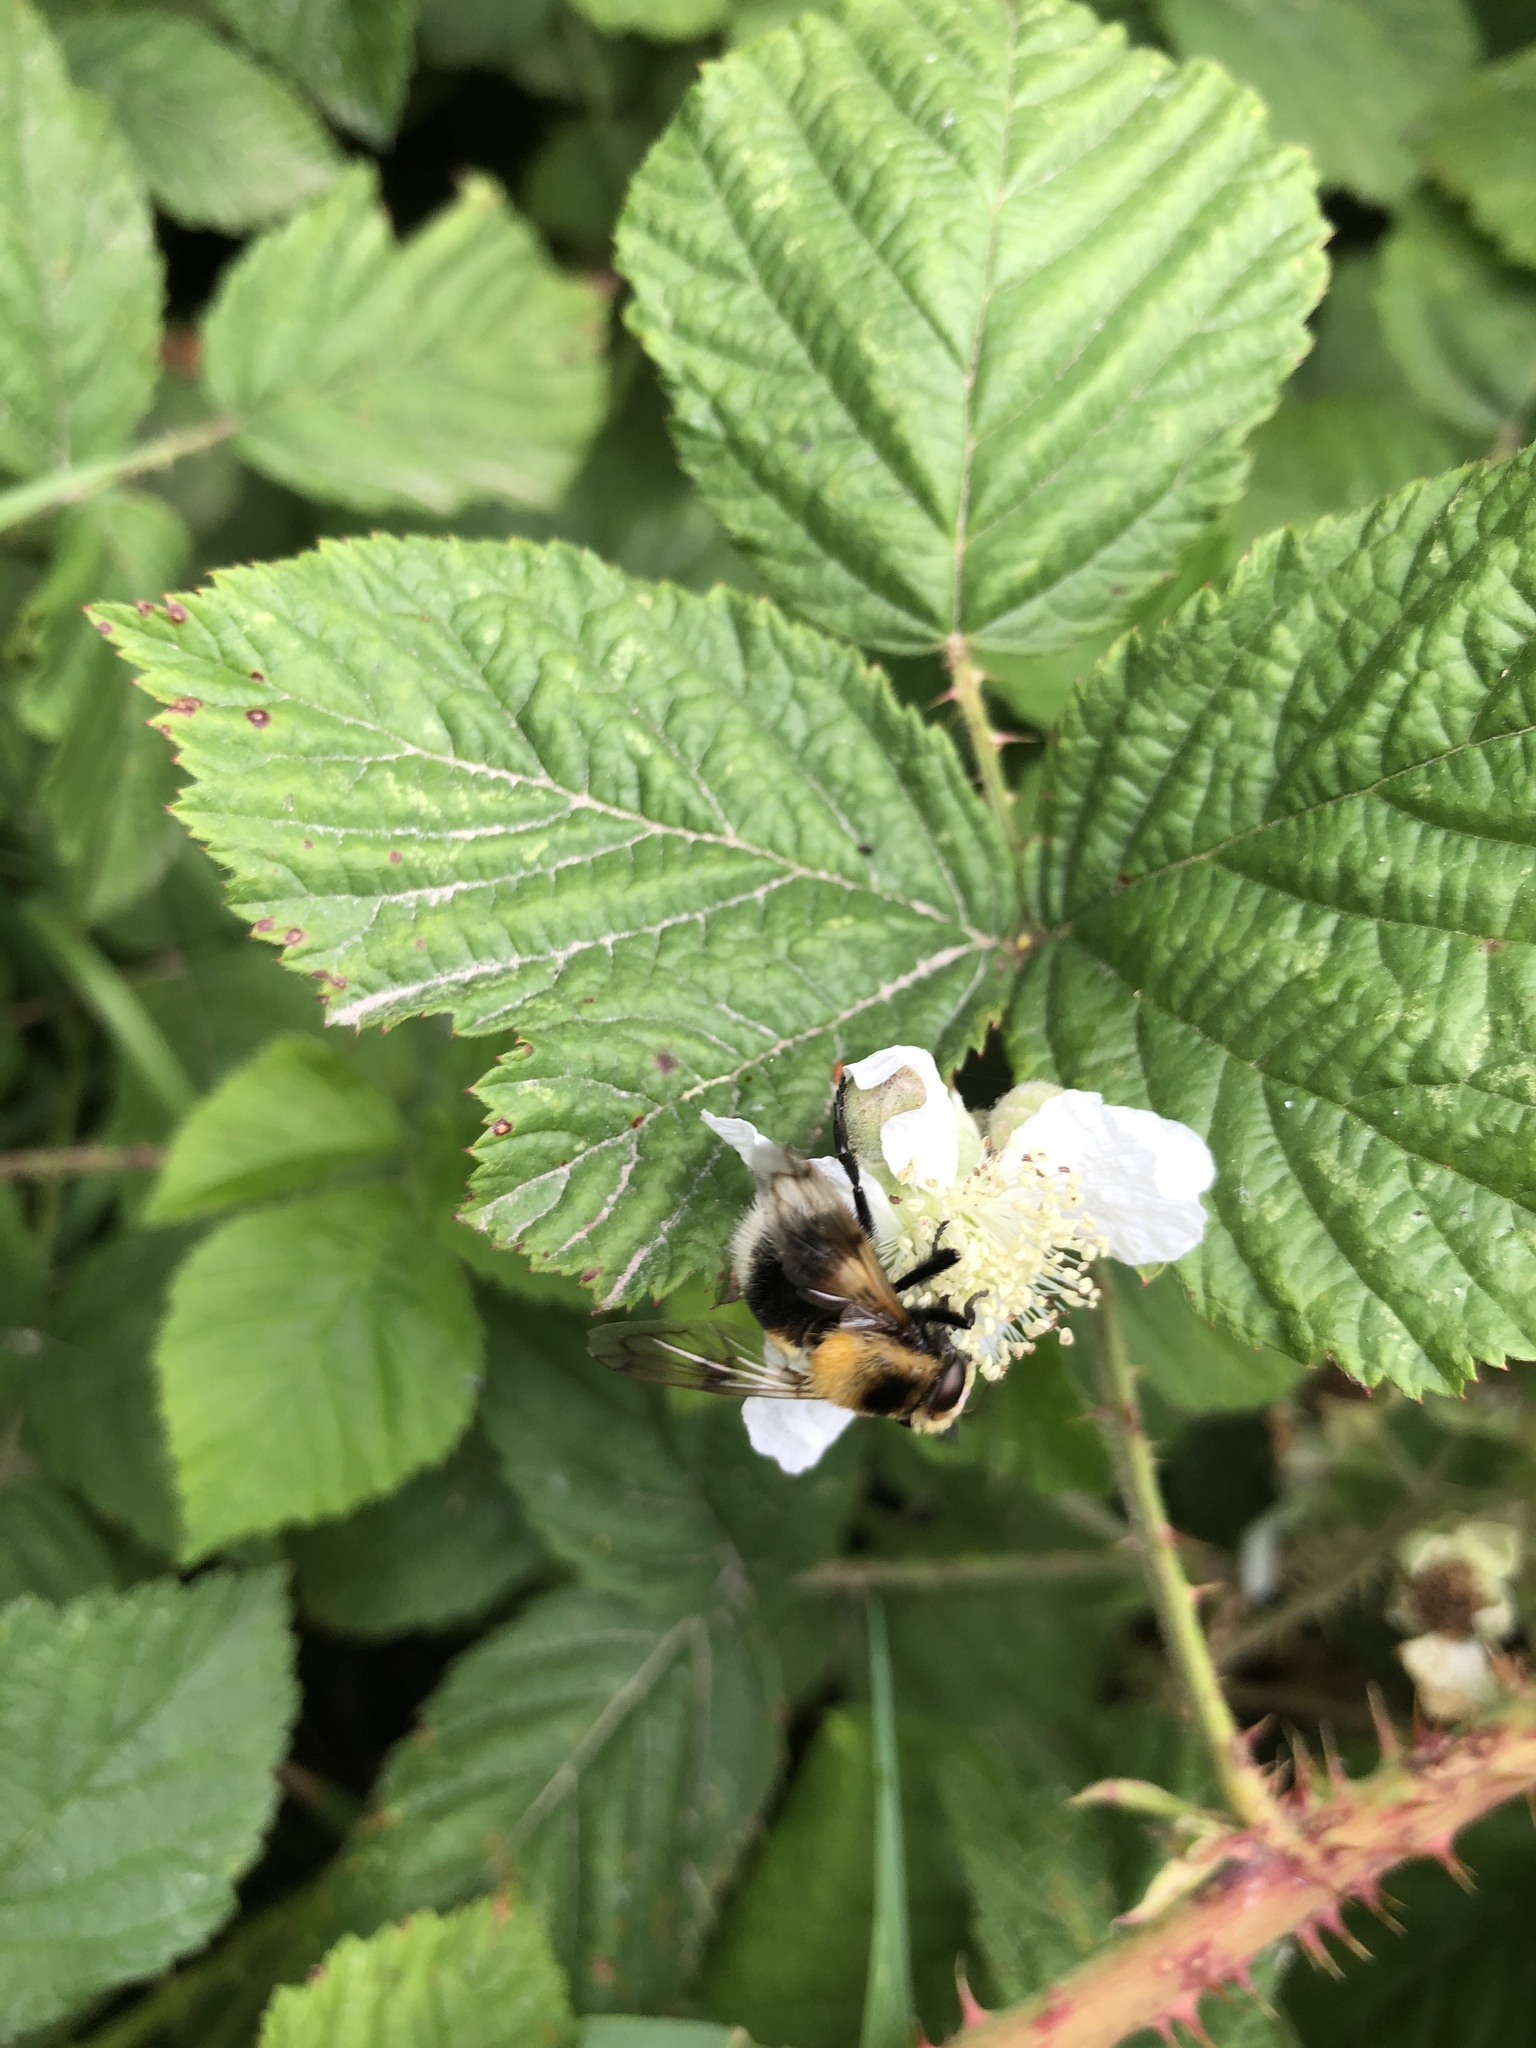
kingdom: Animalia
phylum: Arthropoda
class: Insecta
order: Diptera
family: Syrphidae
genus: Volucella
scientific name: Volucella bombylans
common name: Bumble bee hover fly
